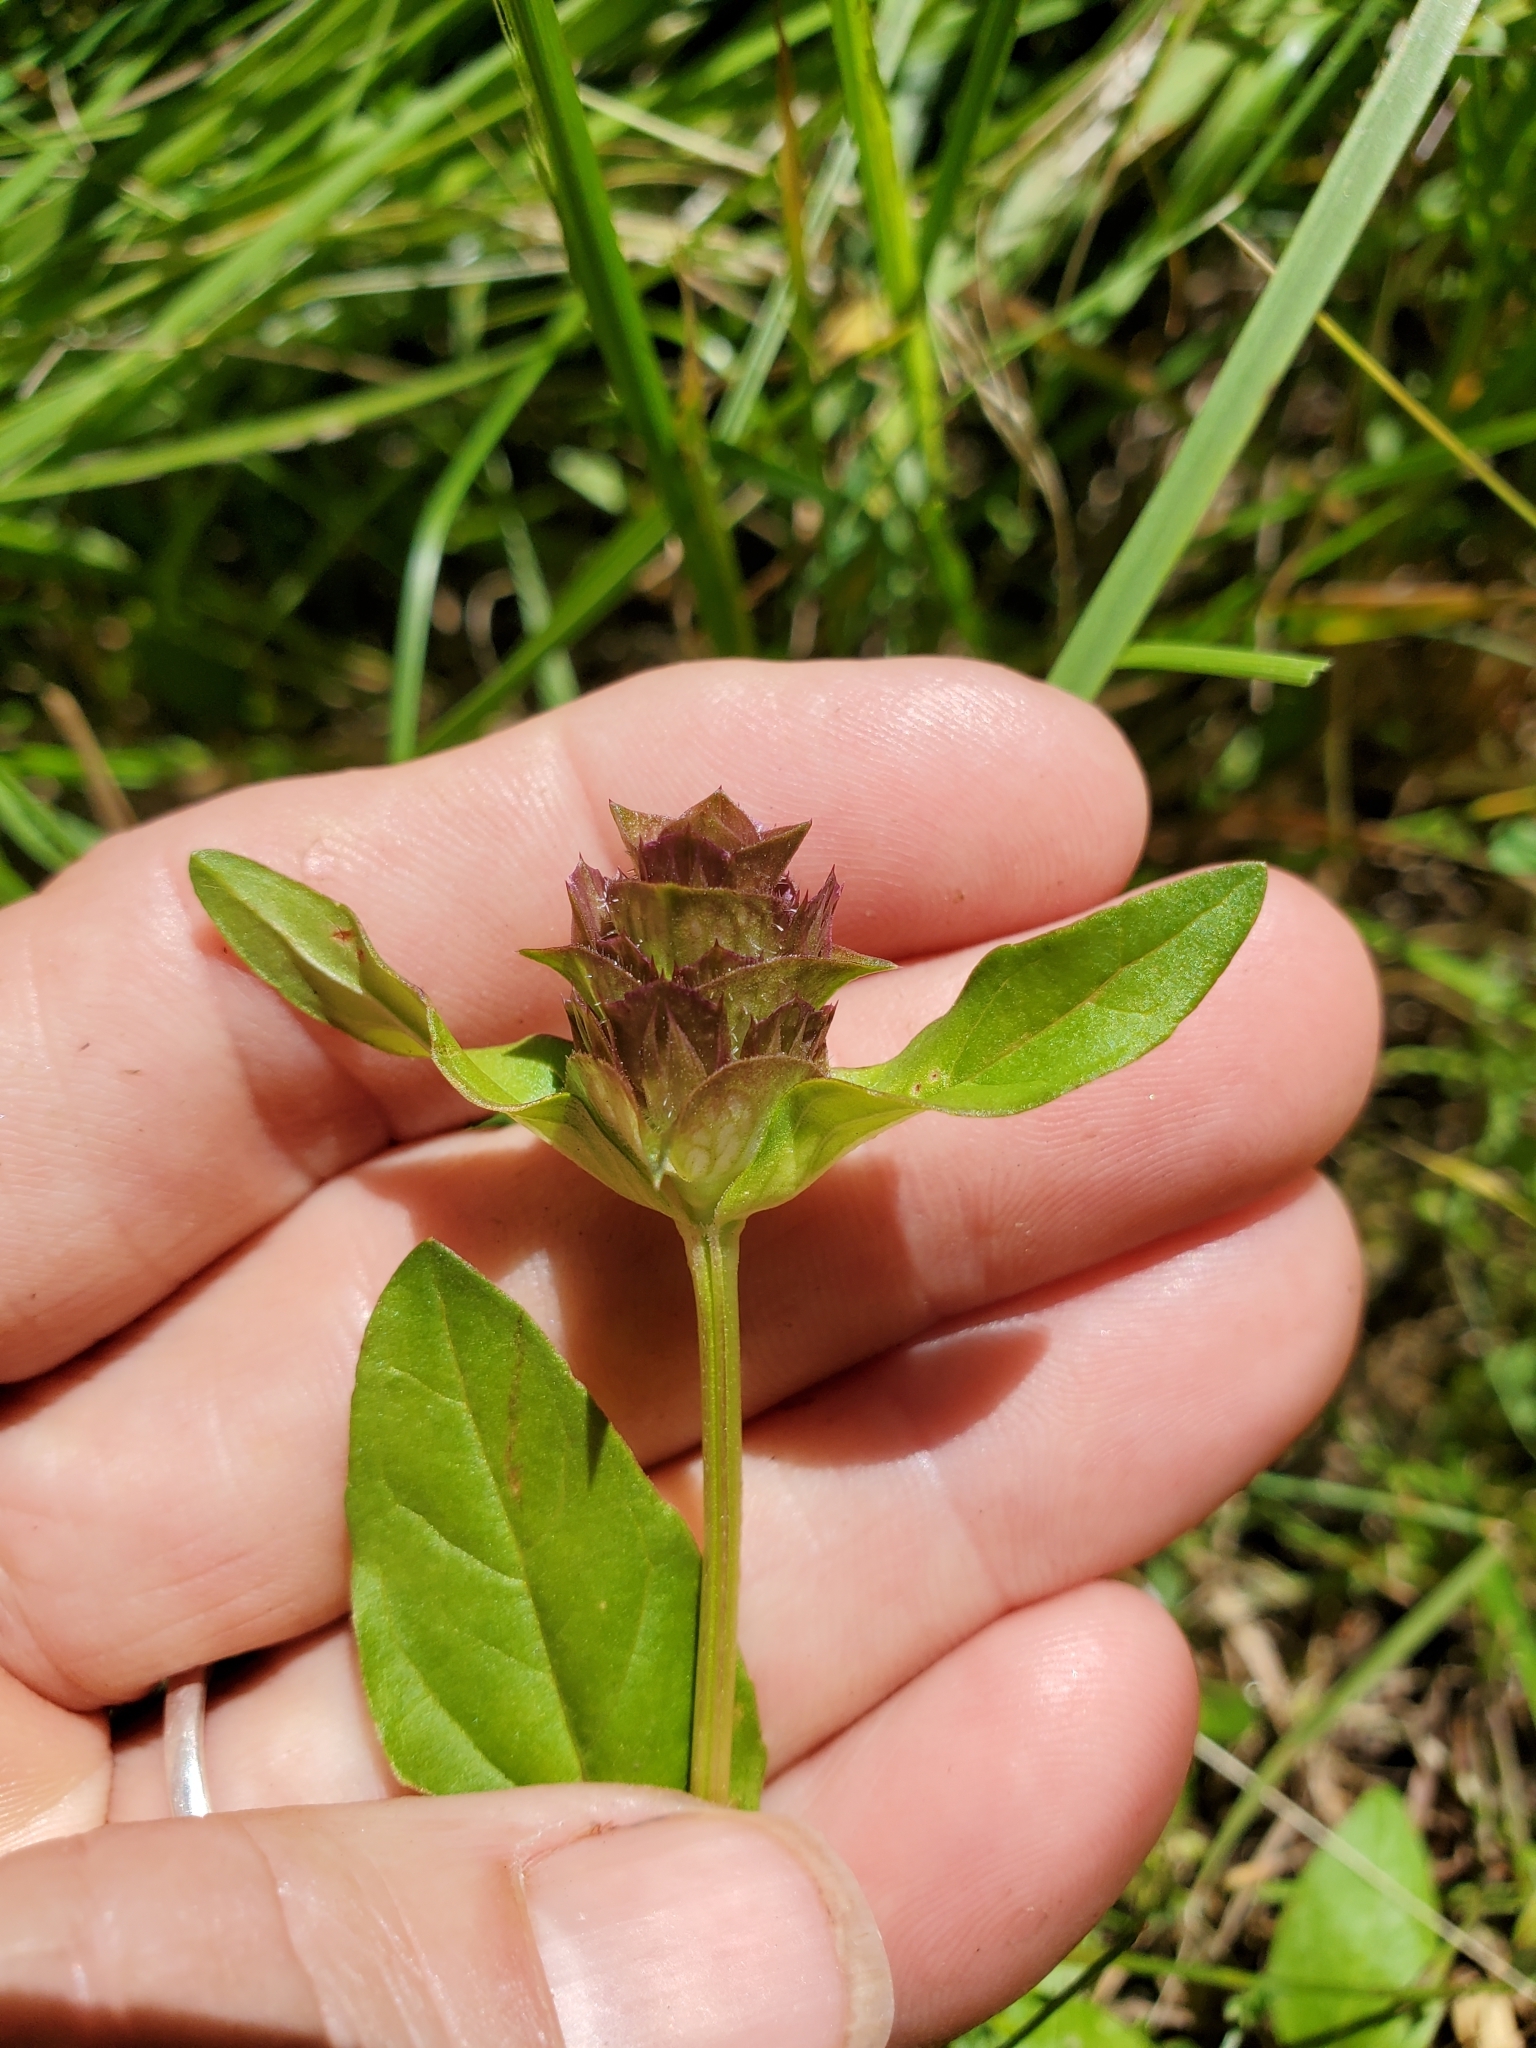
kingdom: Plantae
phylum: Tracheophyta
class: Magnoliopsida
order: Lamiales
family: Lamiaceae
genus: Prunella
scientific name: Prunella vulgaris
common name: Heal-all
